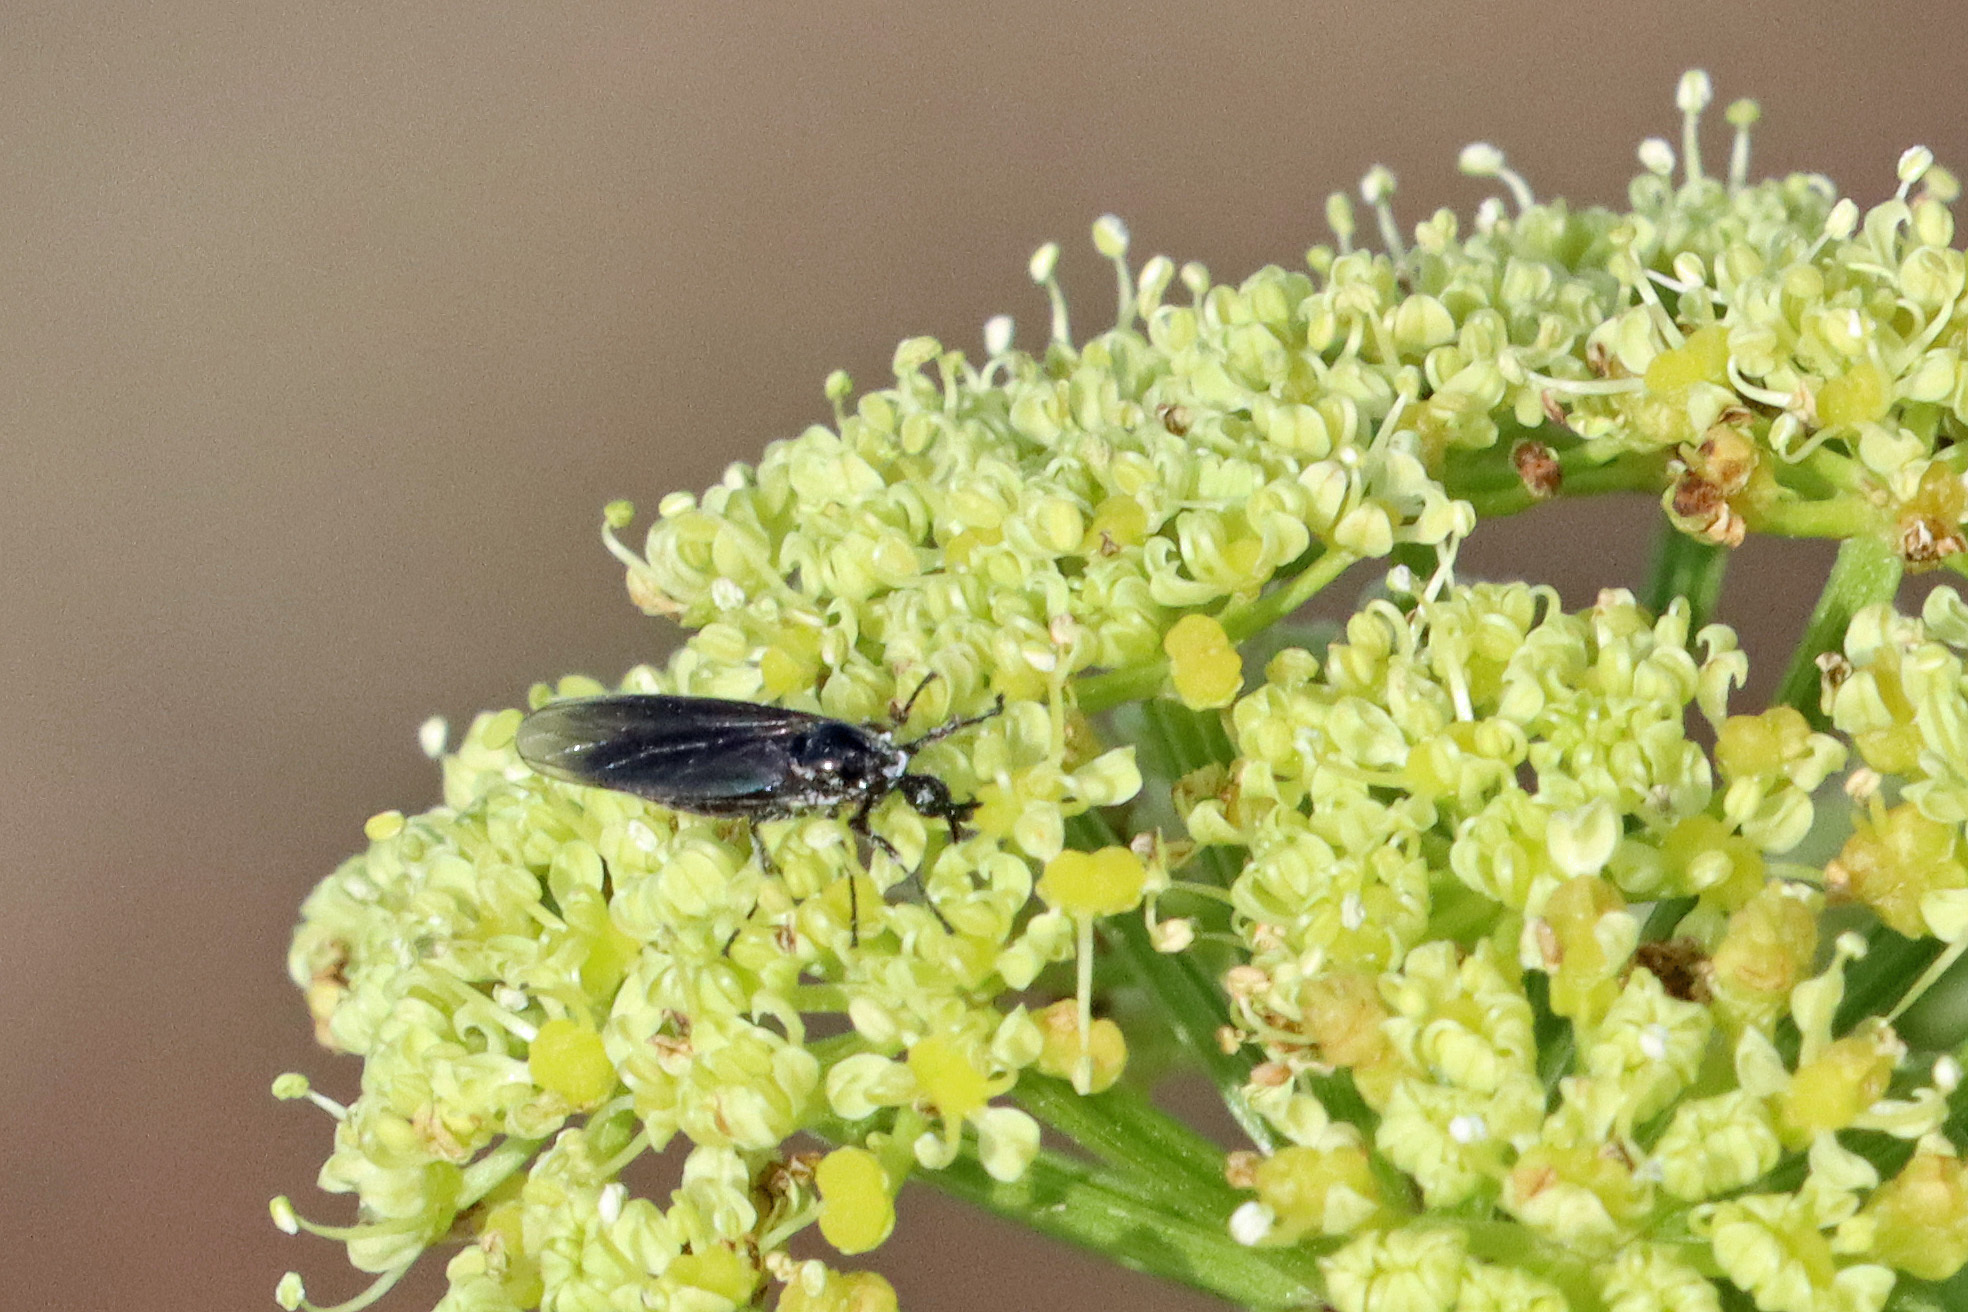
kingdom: Animalia
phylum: Arthropoda
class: Insecta
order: Diptera
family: Bibionidae
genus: Dilophus
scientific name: Dilophus febrilis
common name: Fever fly
